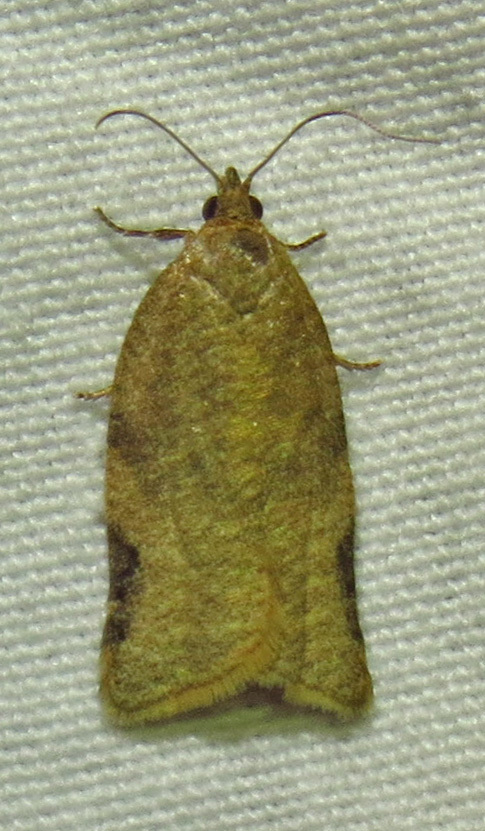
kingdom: Animalia
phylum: Arthropoda
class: Insecta
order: Lepidoptera
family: Tortricidae
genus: Clepsis
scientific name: Clepsis virescana
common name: Greenish apple moth
